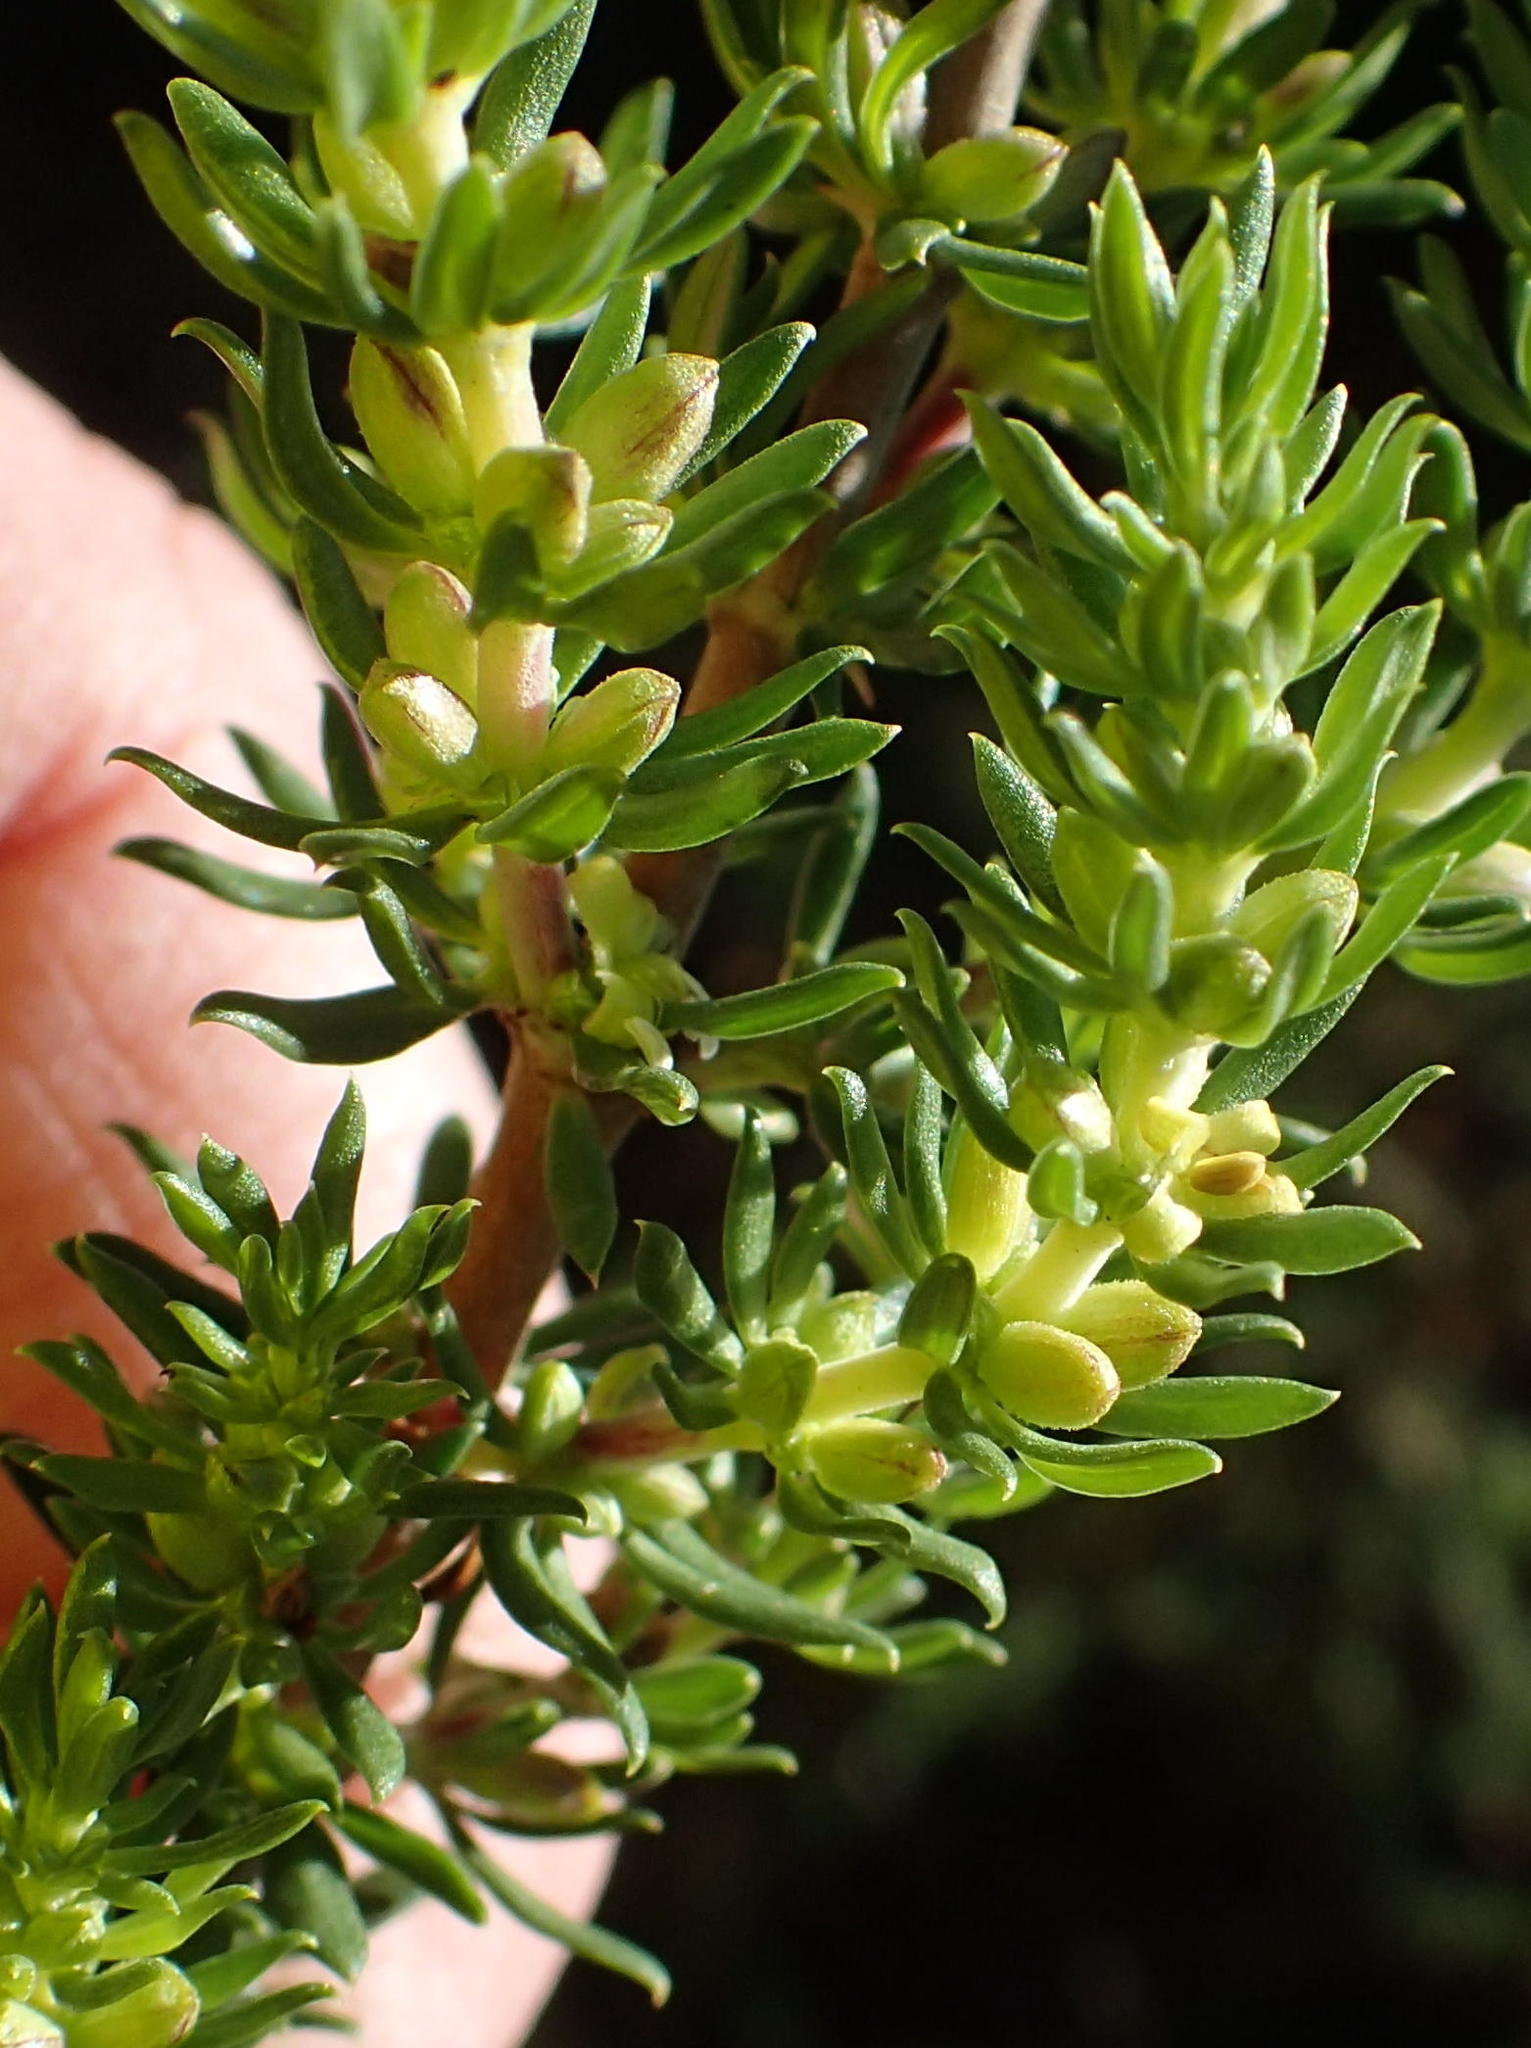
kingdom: Plantae
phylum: Tracheophyta
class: Magnoliopsida
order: Gentianales
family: Rubiaceae
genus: Anthospermum
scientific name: Anthospermum aethiopicum
